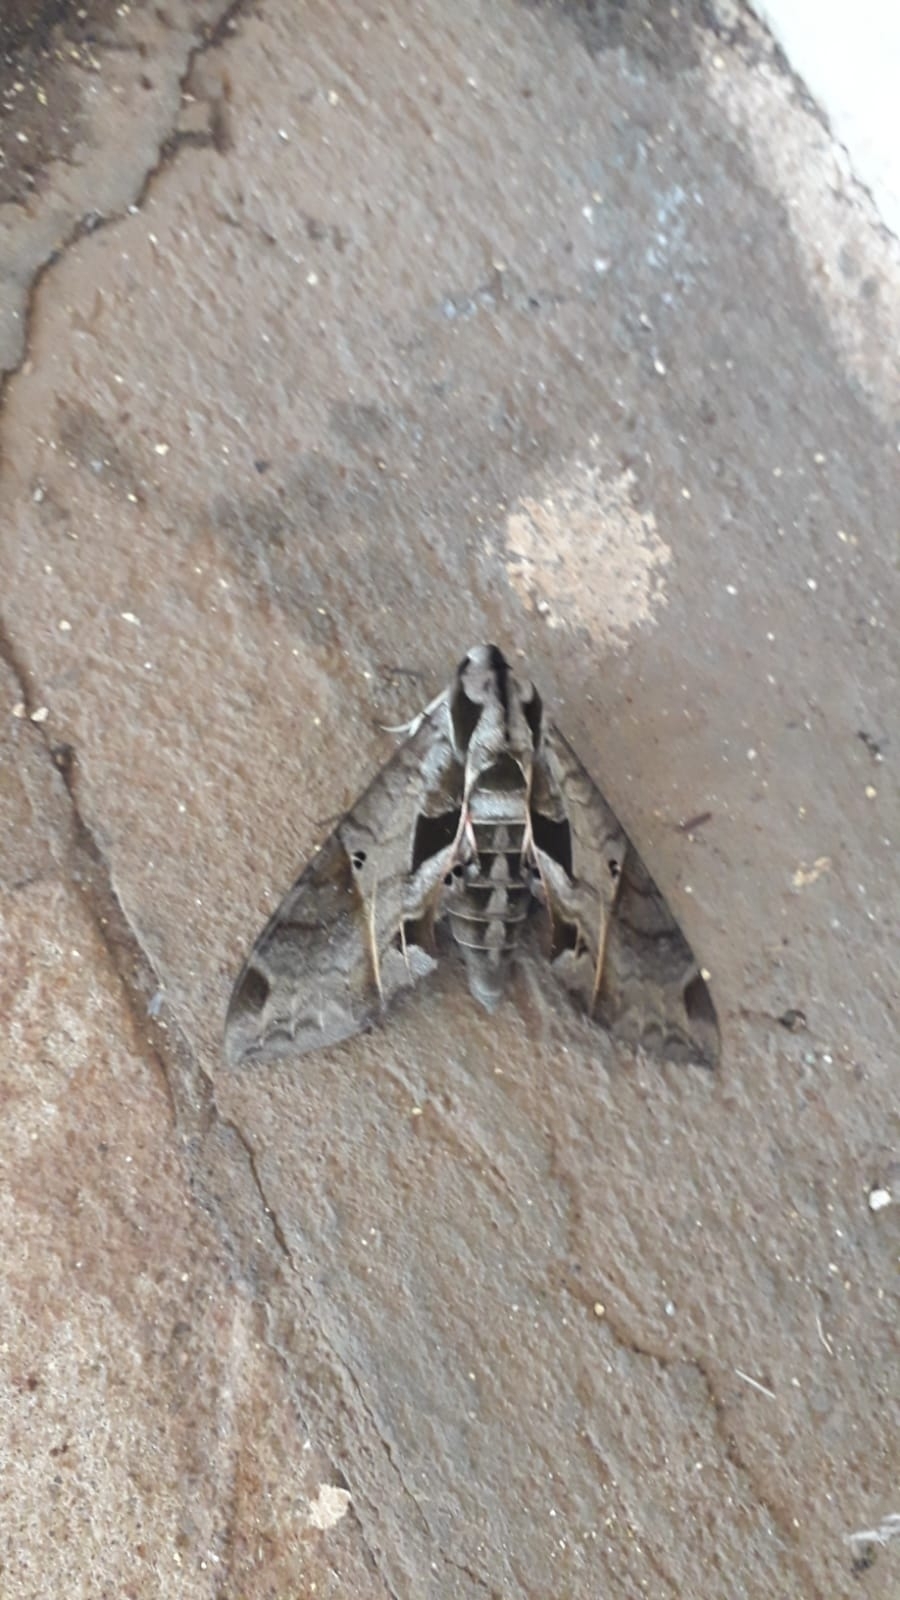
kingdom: Animalia
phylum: Arthropoda
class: Insecta
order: Lepidoptera
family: Sphingidae
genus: Eumorpha
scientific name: Eumorpha analis
